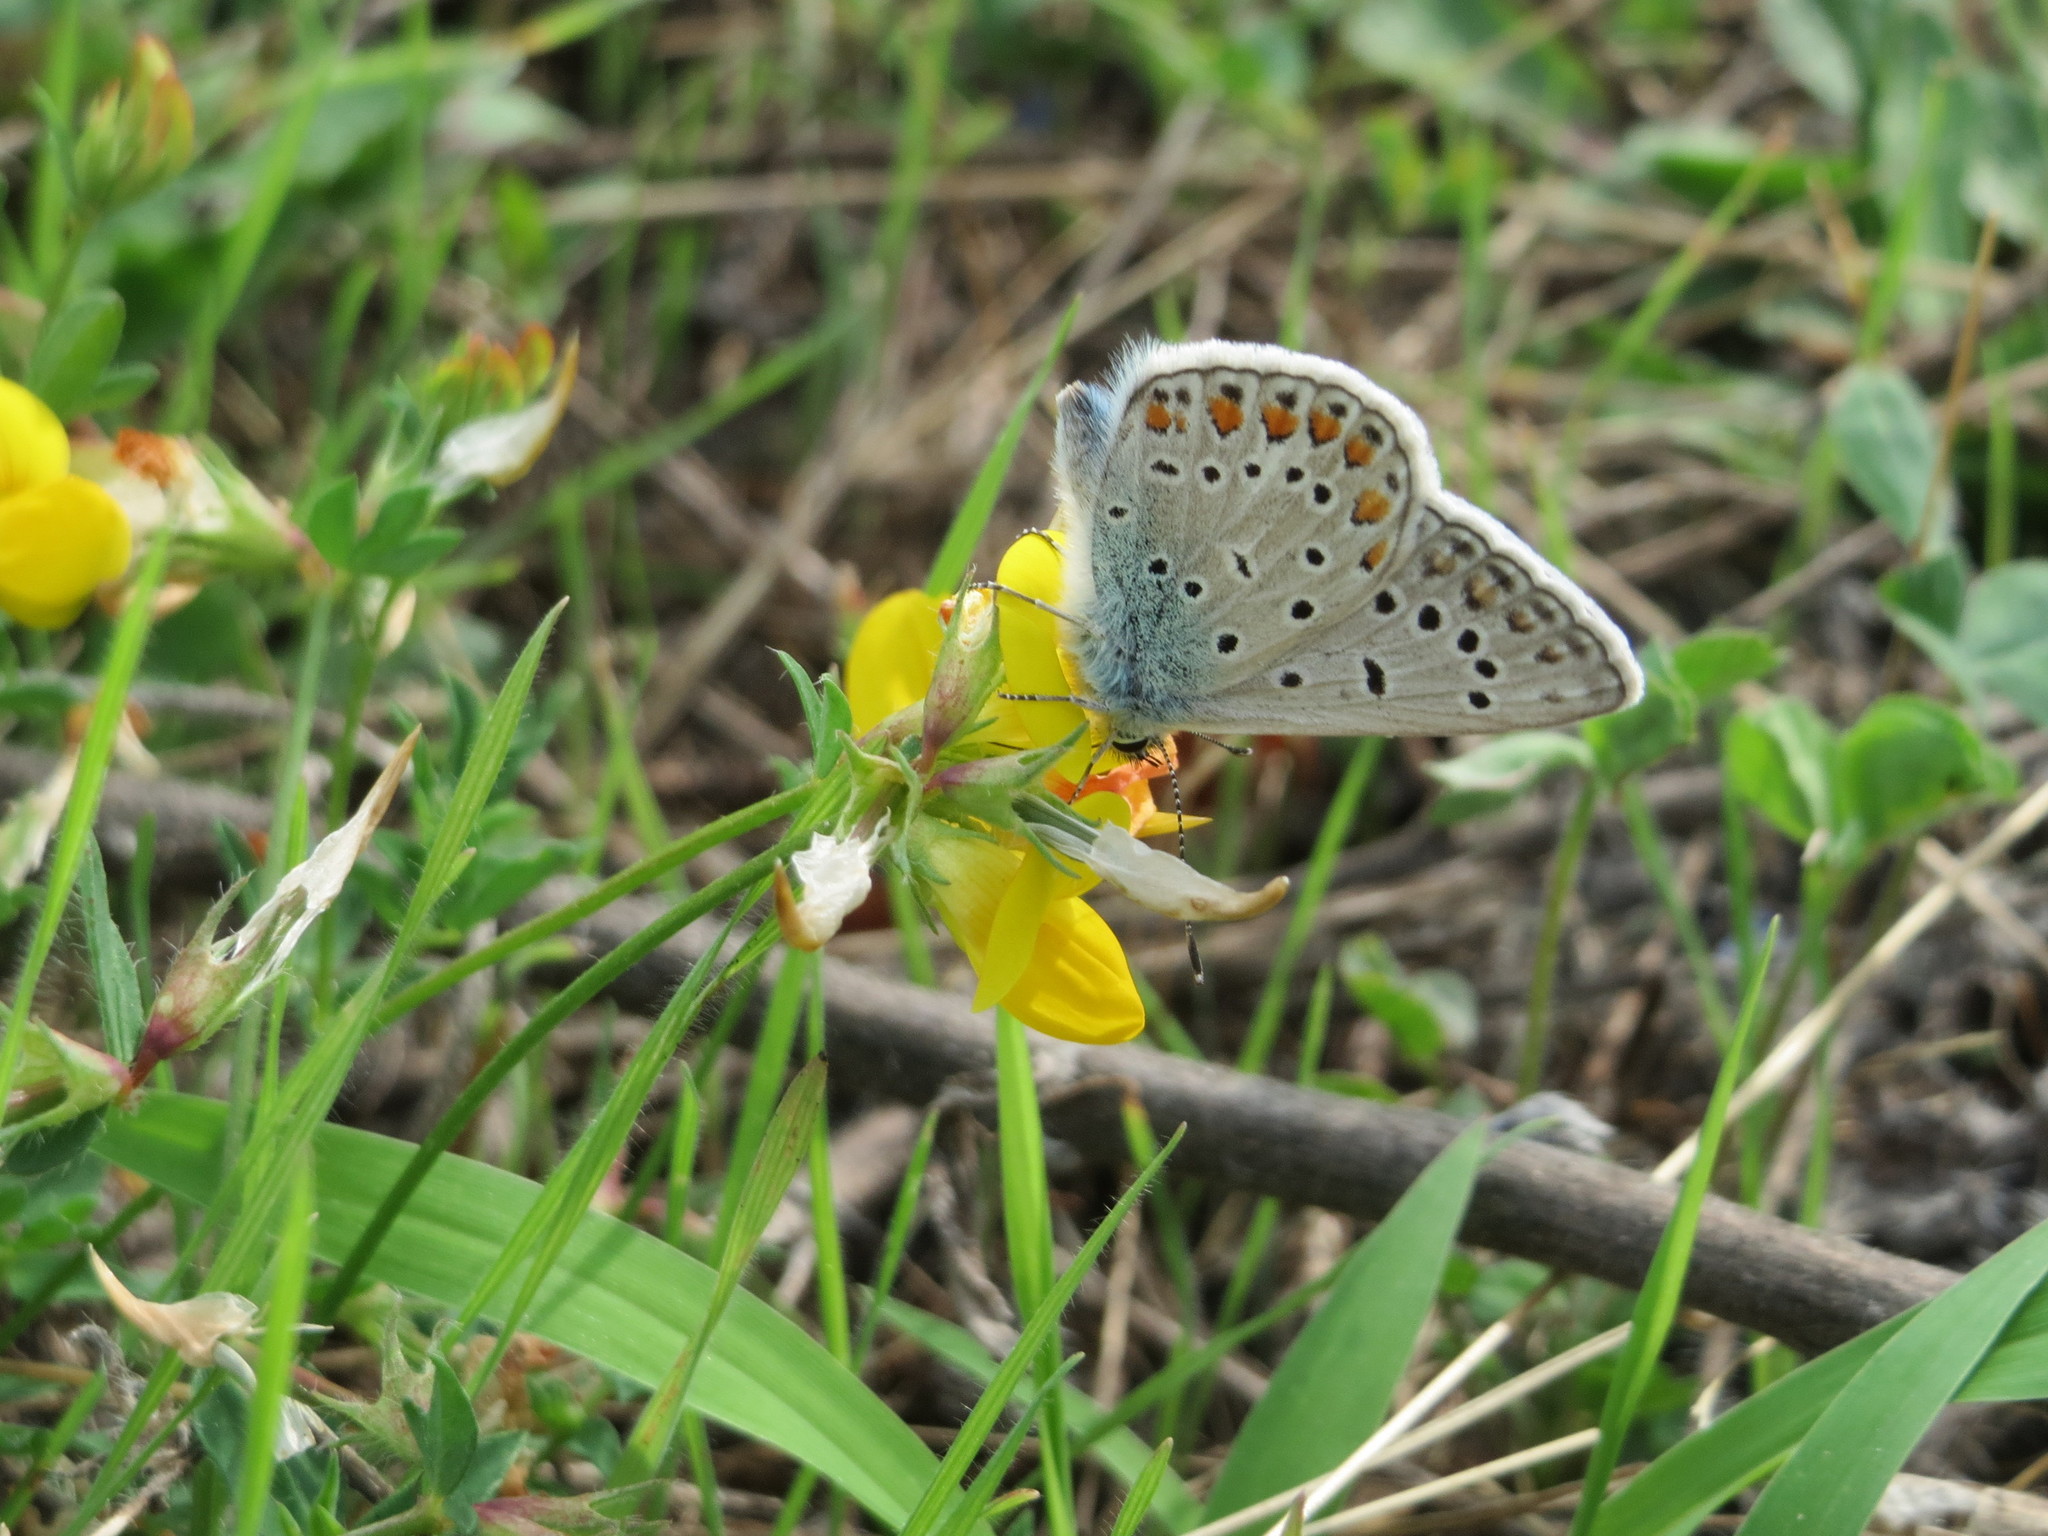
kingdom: Animalia
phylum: Arthropoda
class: Insecta
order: Lepidoptera
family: Lycaenidae
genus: Polyommatus
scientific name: Polyommatus icarus
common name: Common blue
